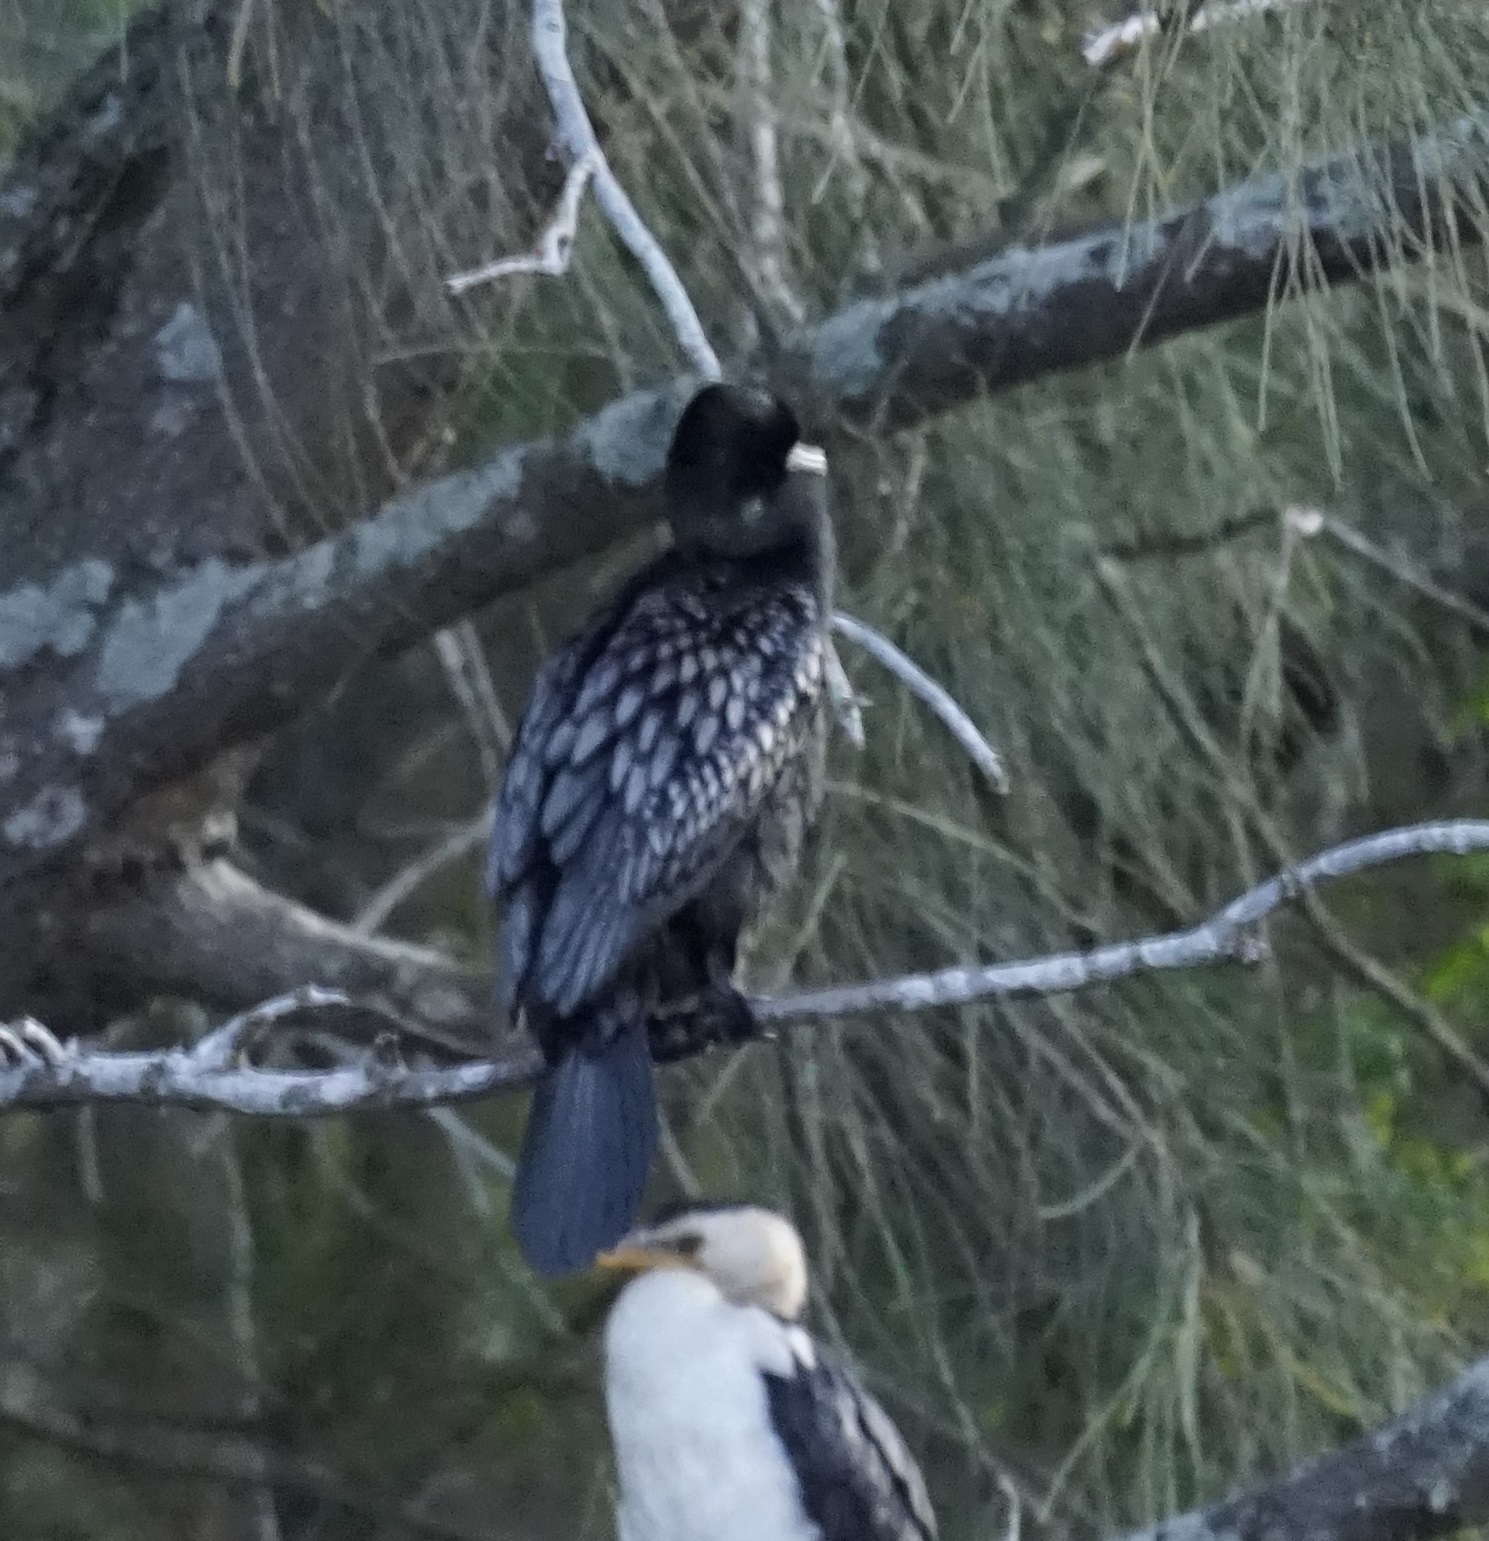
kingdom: Animalia
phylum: Chordata
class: Aves
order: Suliformes
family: Phalacrocoracidae
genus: Phalacrocorax
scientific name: Phalacrocorax sulcirostris
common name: Little black cormorant
